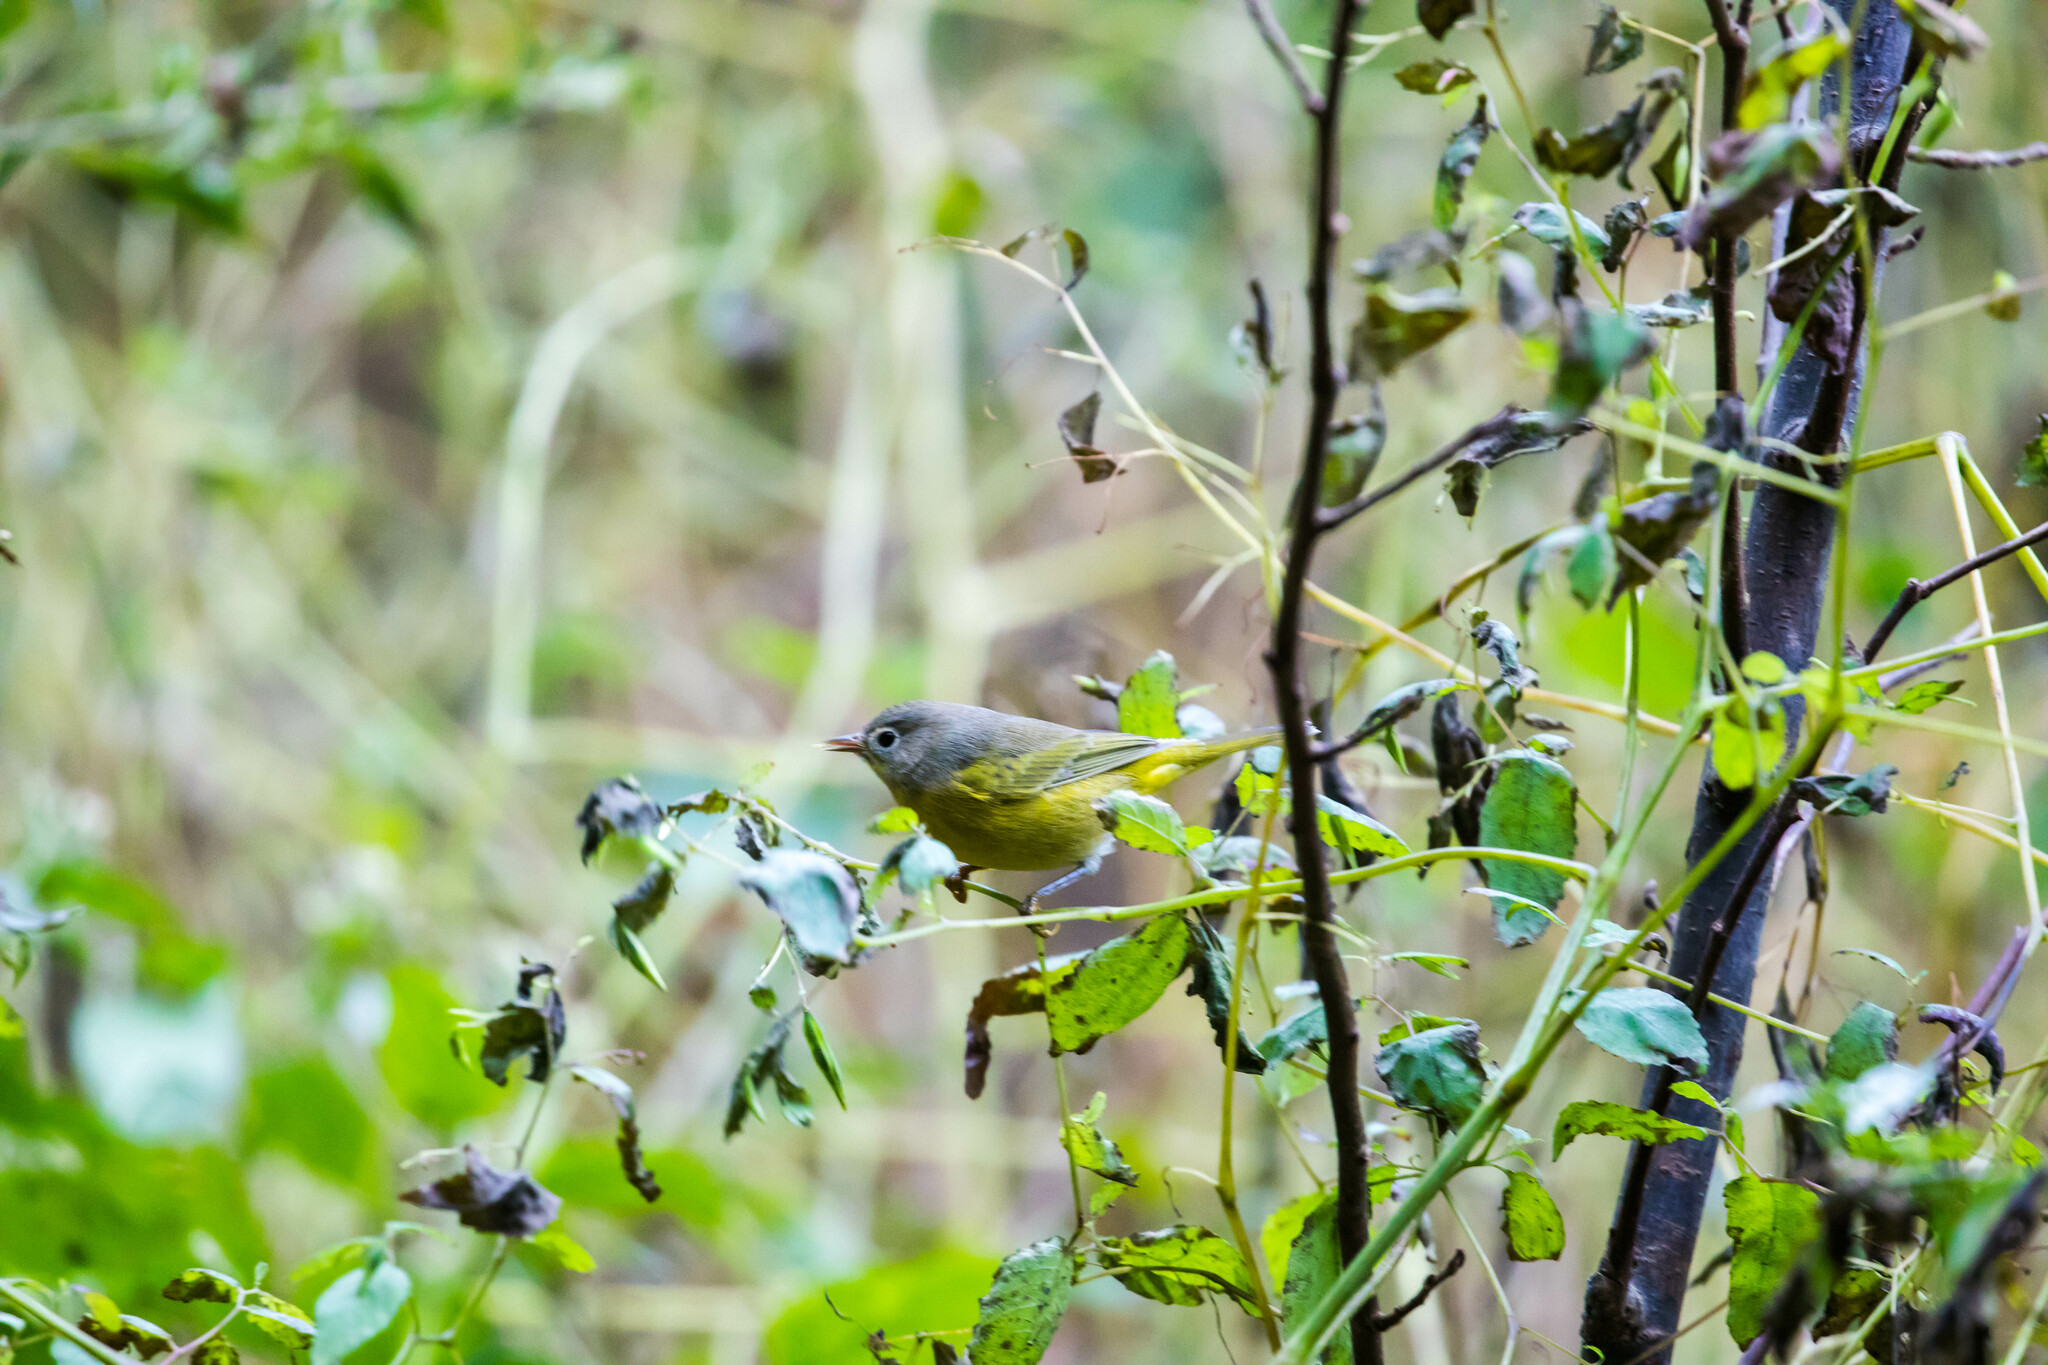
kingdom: Animalia
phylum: Chordata
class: Aves
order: Passeriformes
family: Parulidae
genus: Leiothlypis
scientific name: Leiothlypis ruficapilla
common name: Nashville warbler
